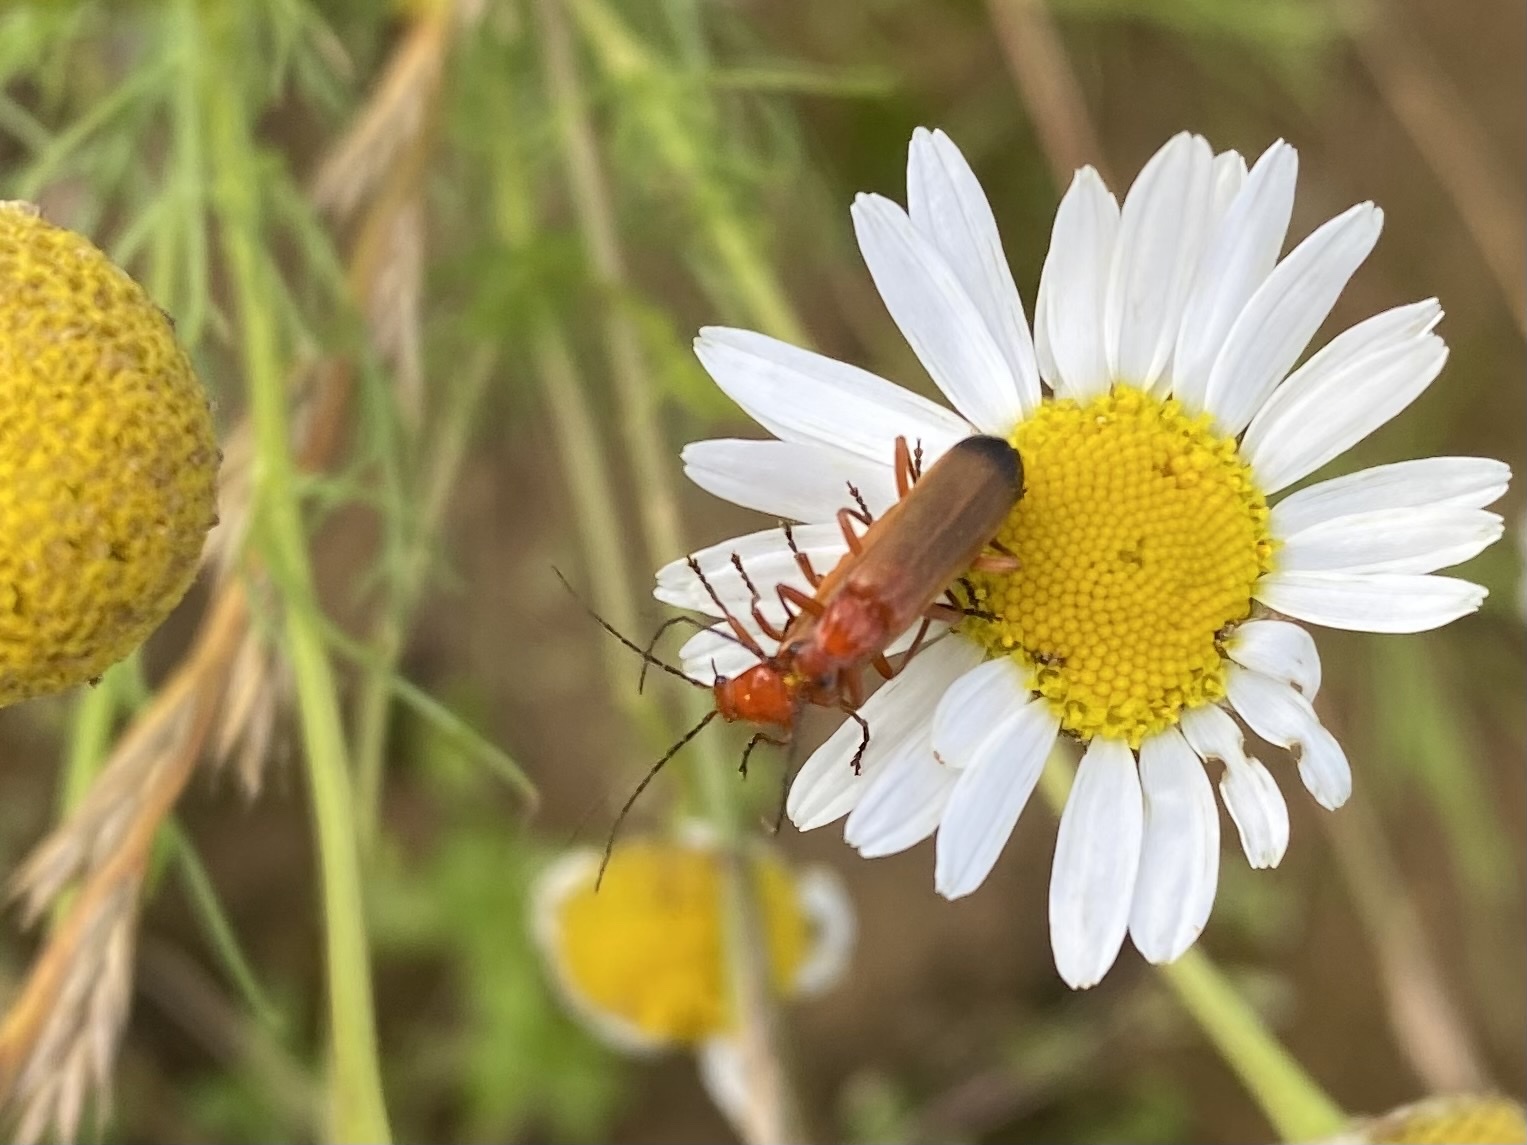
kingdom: Animalia
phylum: Arthropoda
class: Insecta
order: Coleoptera
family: Cantharidae
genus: Rhagonycha
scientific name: Rhagonycha fulva
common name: Common red soldier beetle
